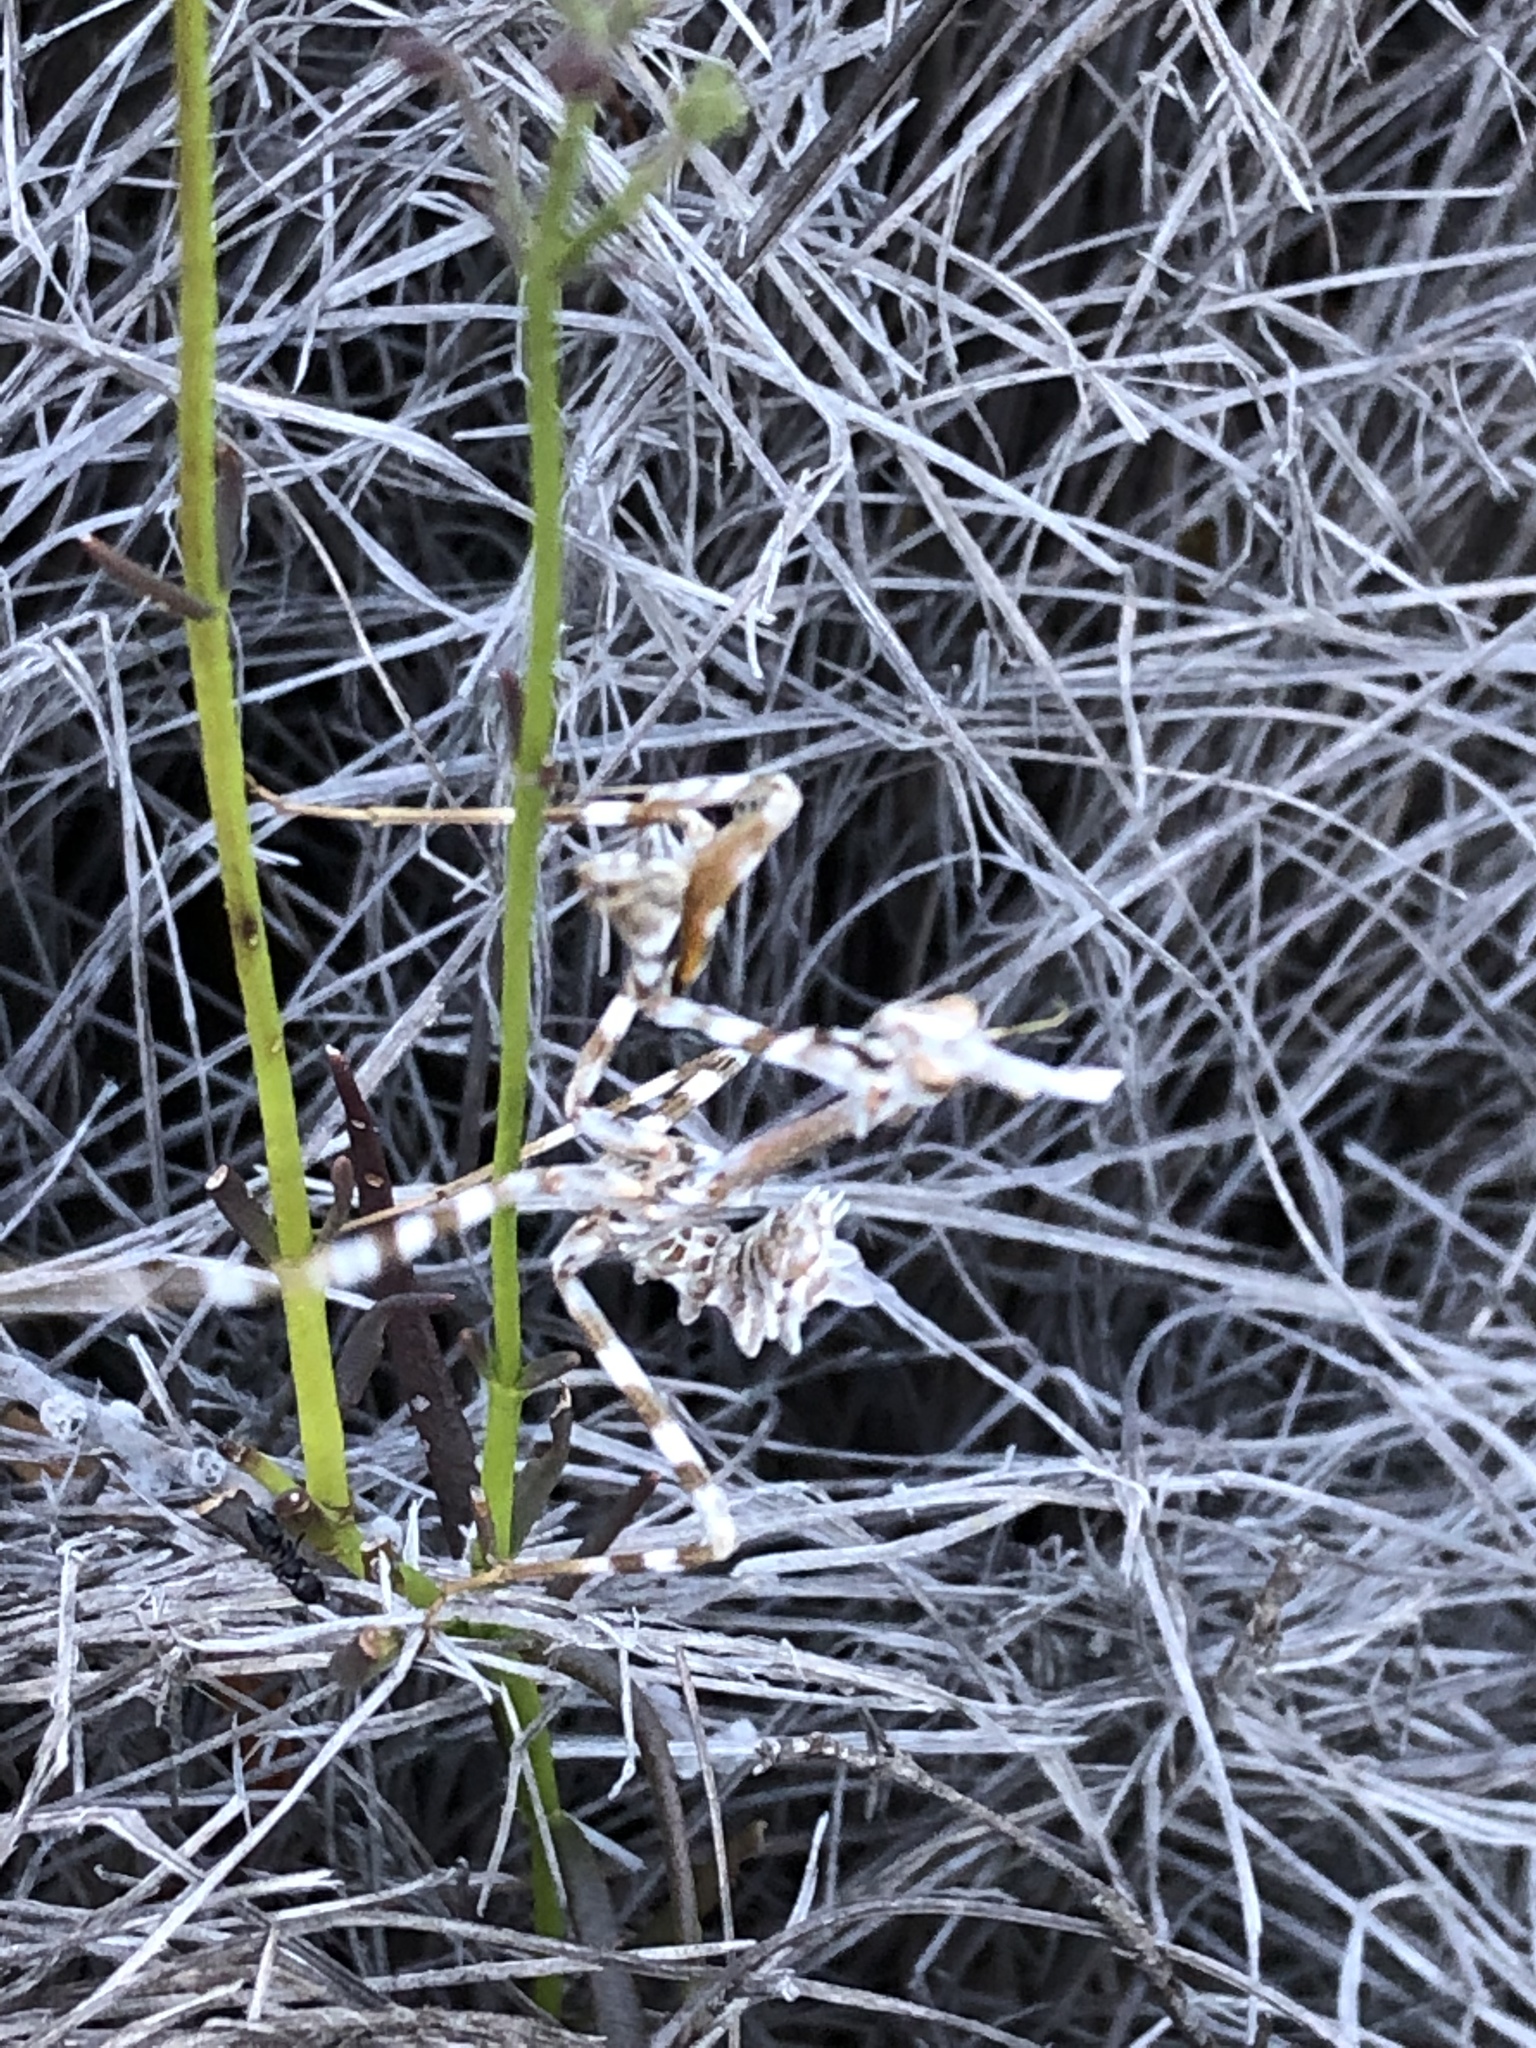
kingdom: Animalia
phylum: Arthropoda
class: Insecta
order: Mantodea
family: Empusidae
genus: Empusa
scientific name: Empusa binotata
